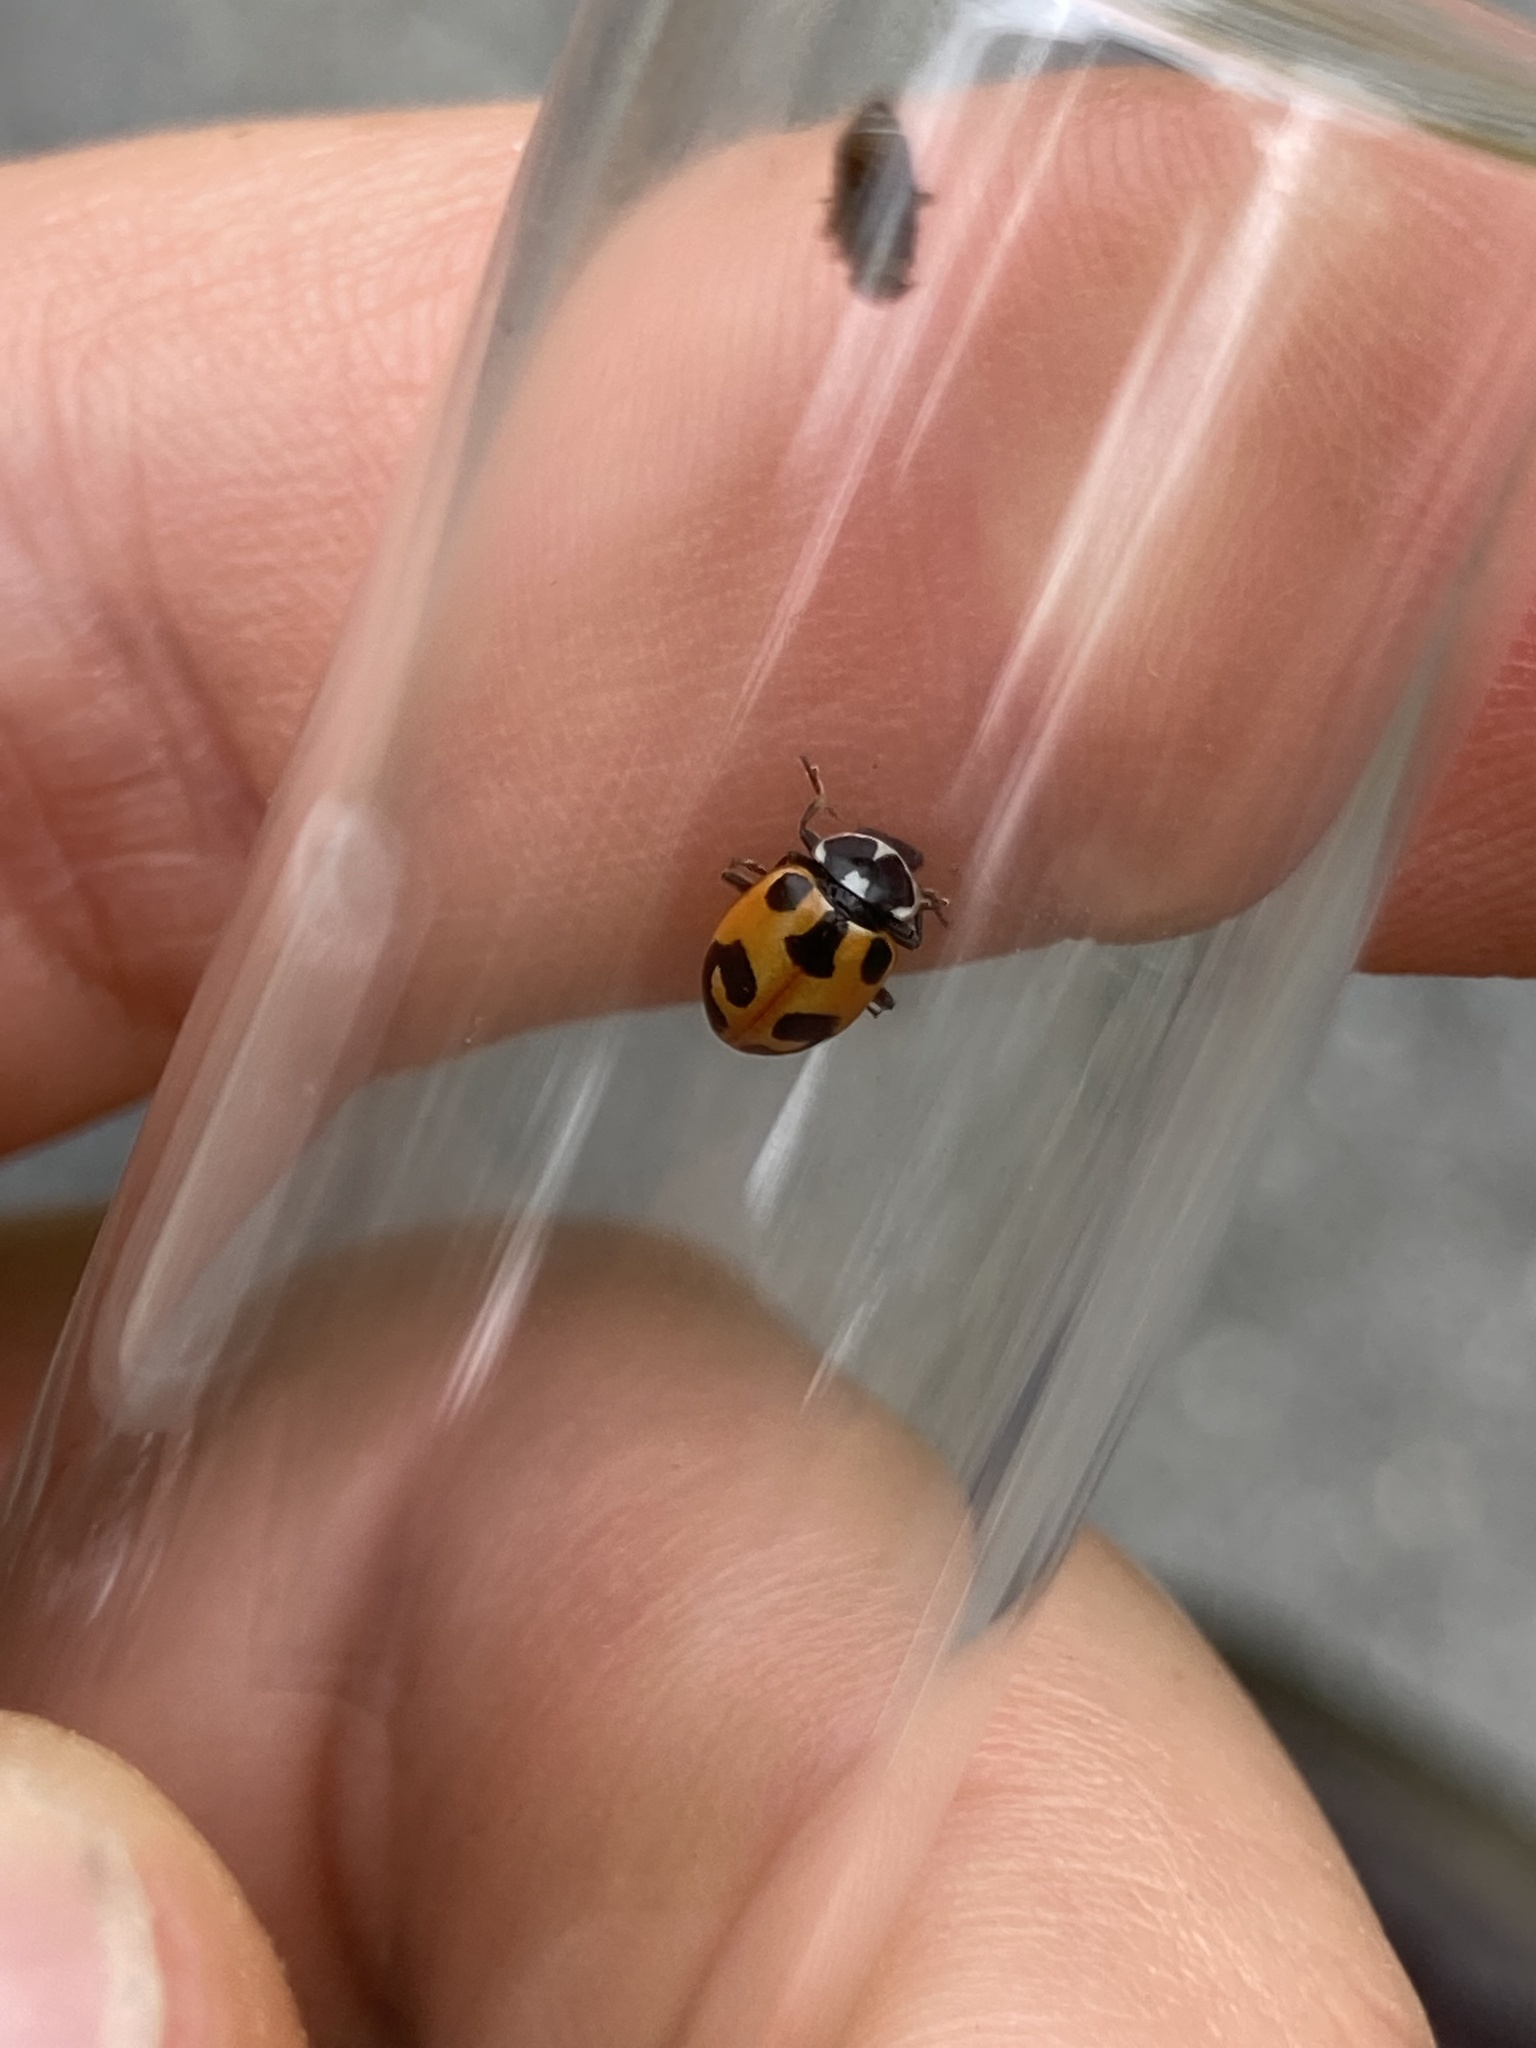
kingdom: Animalia
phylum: Arthropoda
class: Insecta
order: Coleoptera
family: Coccinellidae
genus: Hippodamia
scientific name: Hippodamia parenthesis
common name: Parenthesis lady beetle
